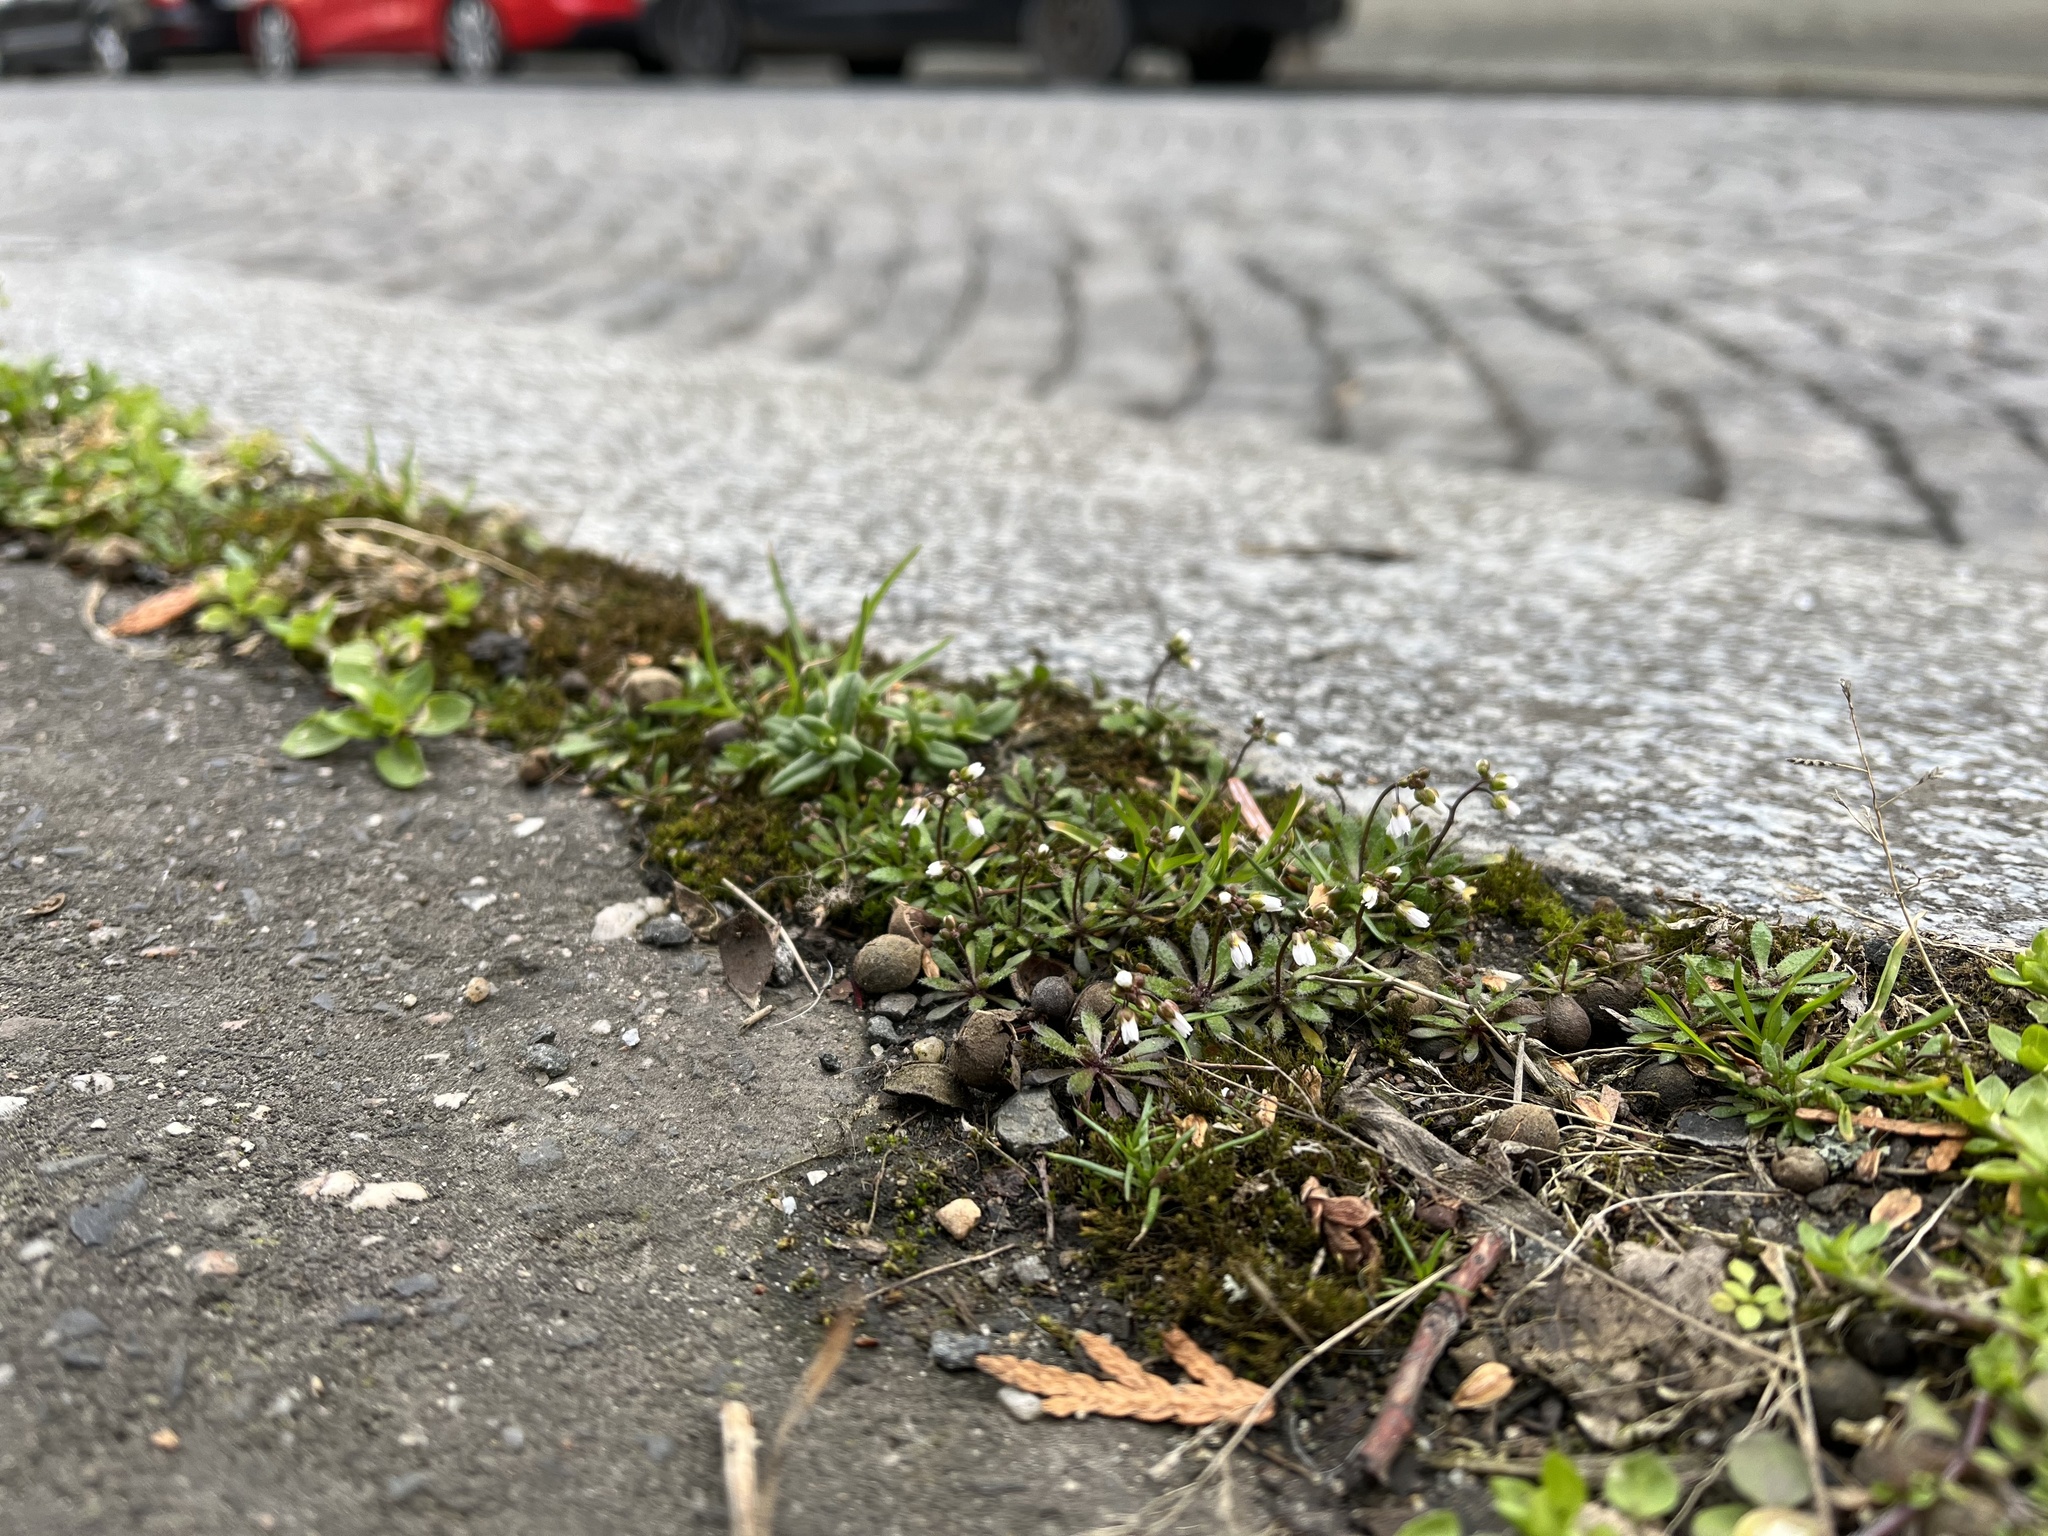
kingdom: Plantae
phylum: Tracheophyta
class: Magnoliopsida
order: Brassicales
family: Brassicaceae
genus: Draba
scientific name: Draba verna
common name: Spring draba
